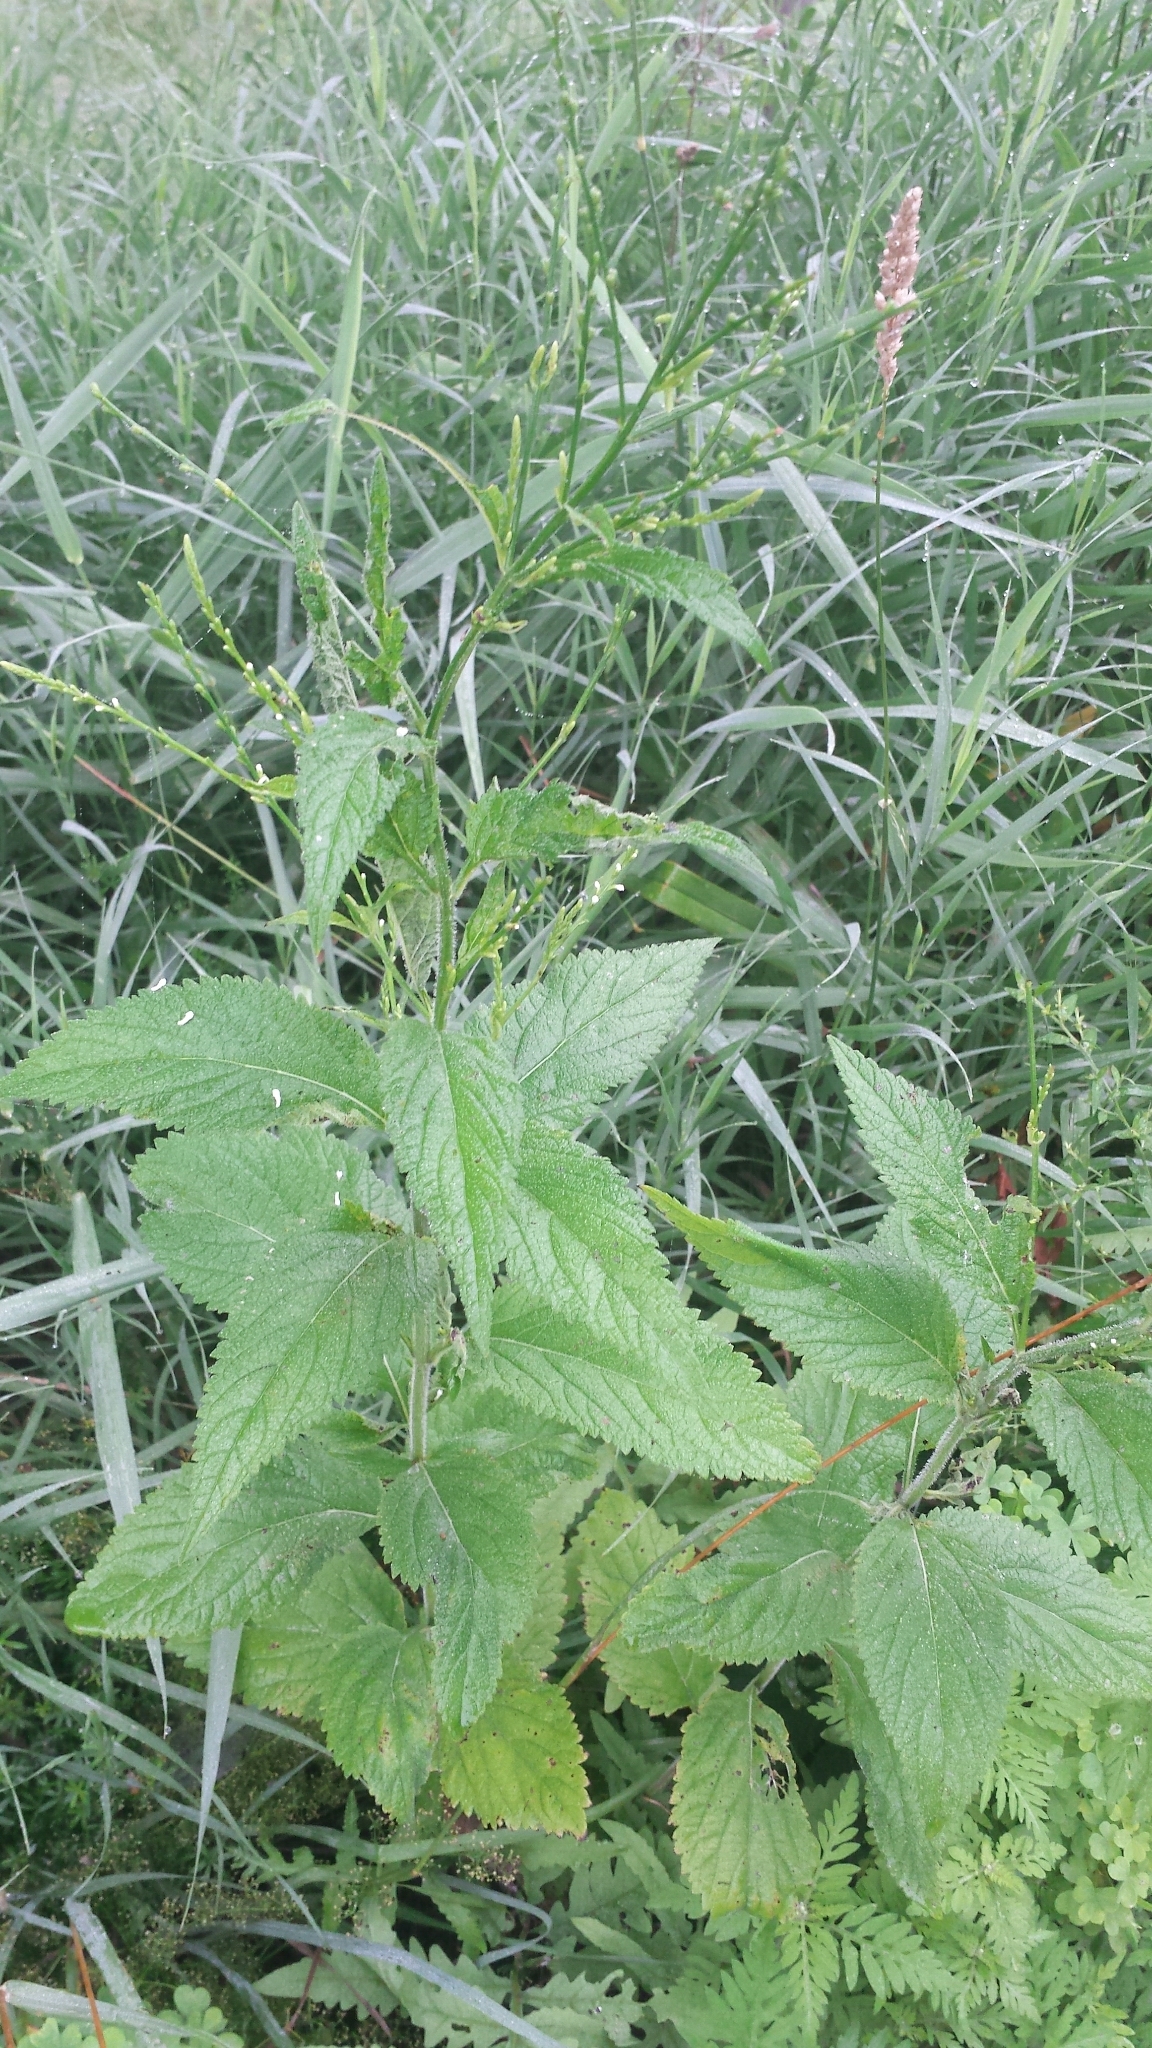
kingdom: Plantae
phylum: Tracheophyta
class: Magnoliopsida
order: Lamiales
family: Verbenaceae
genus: Verbena
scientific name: Verbena urticifolia
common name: Nettle-leaved vervain
